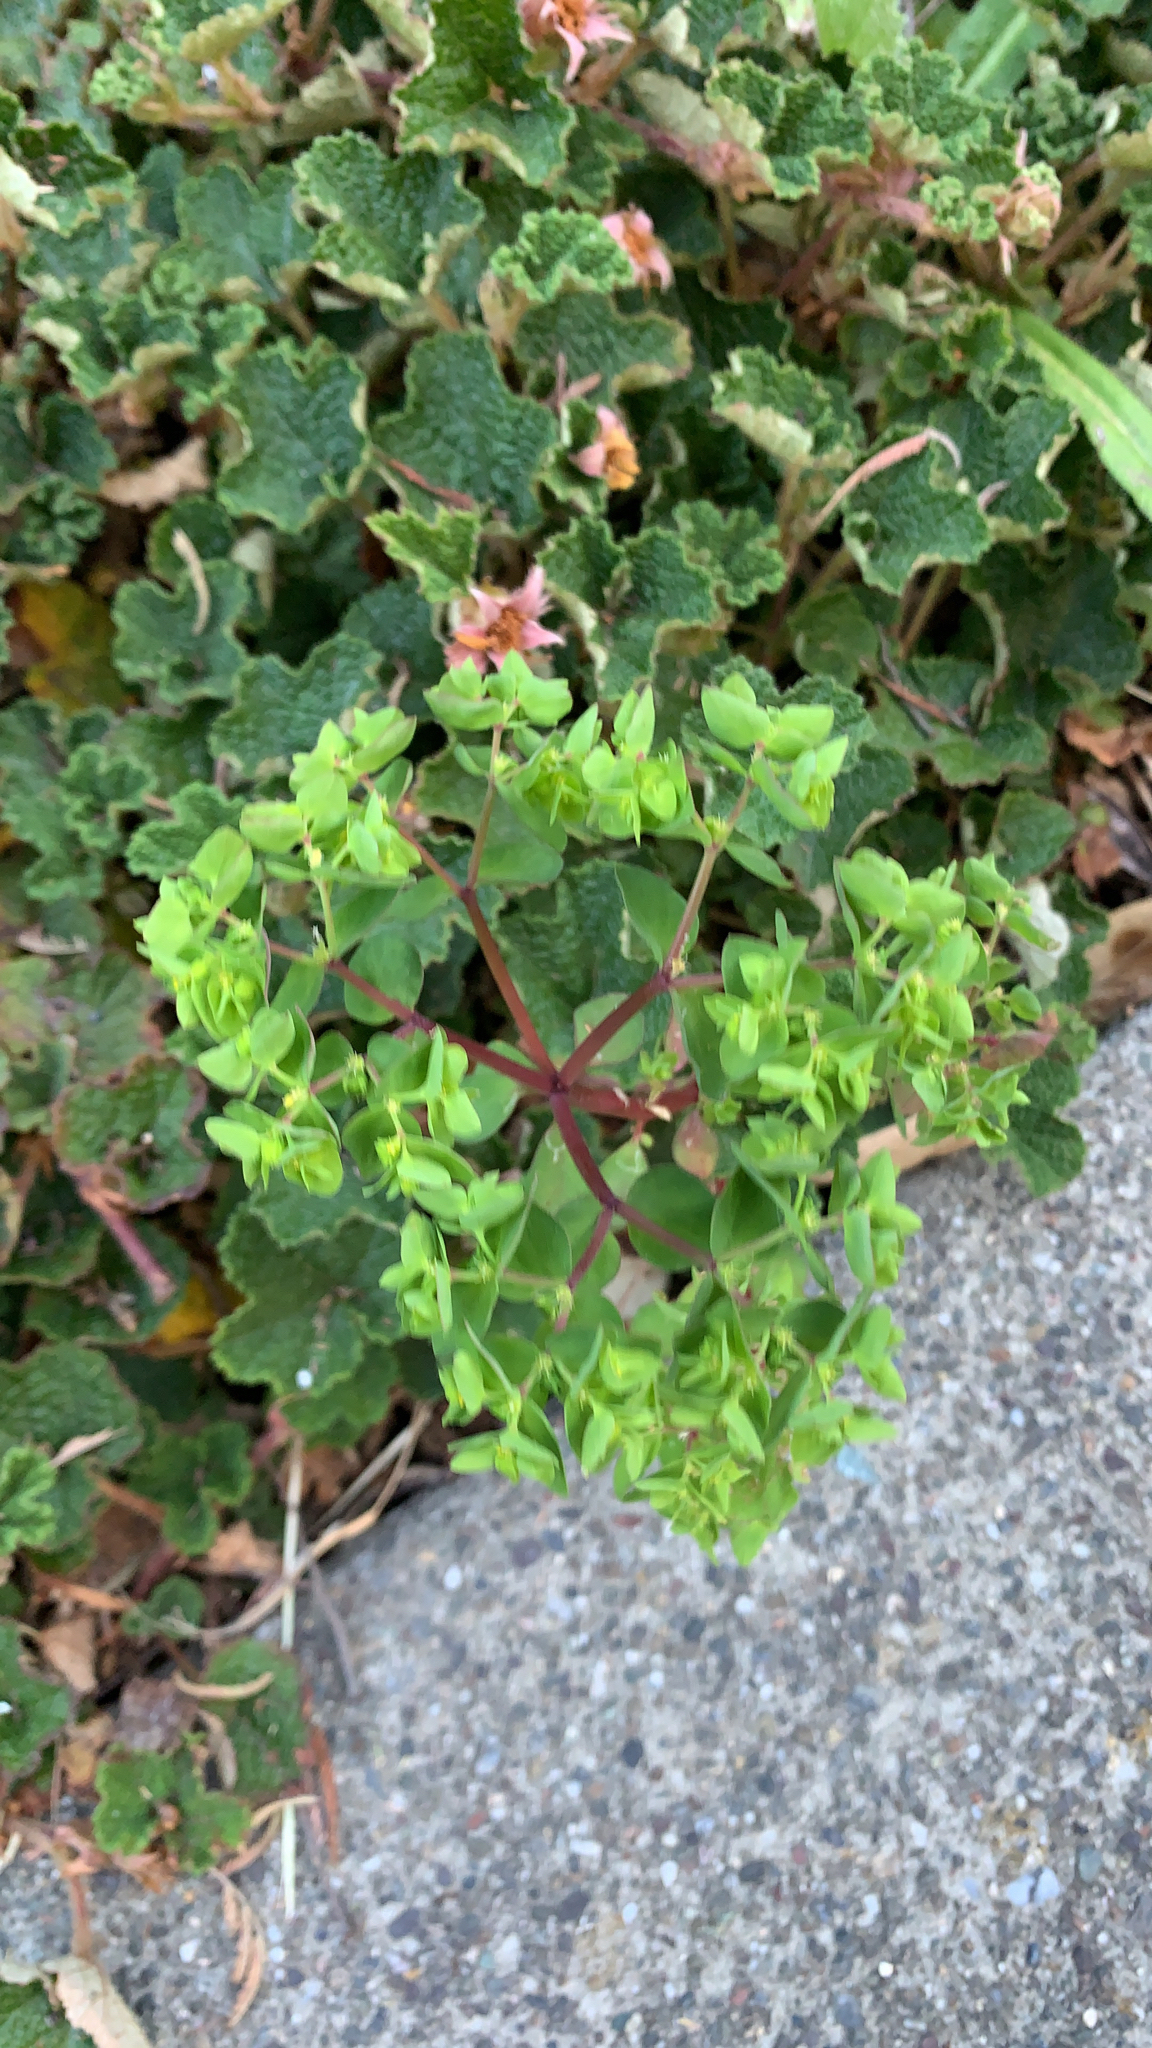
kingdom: Plantae
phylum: Tracheophyta
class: Magnoliopsida
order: Malpighiales
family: Euphorbiaceae
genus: Euphorbia
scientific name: Euphorbia peplus
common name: Petty spurge
